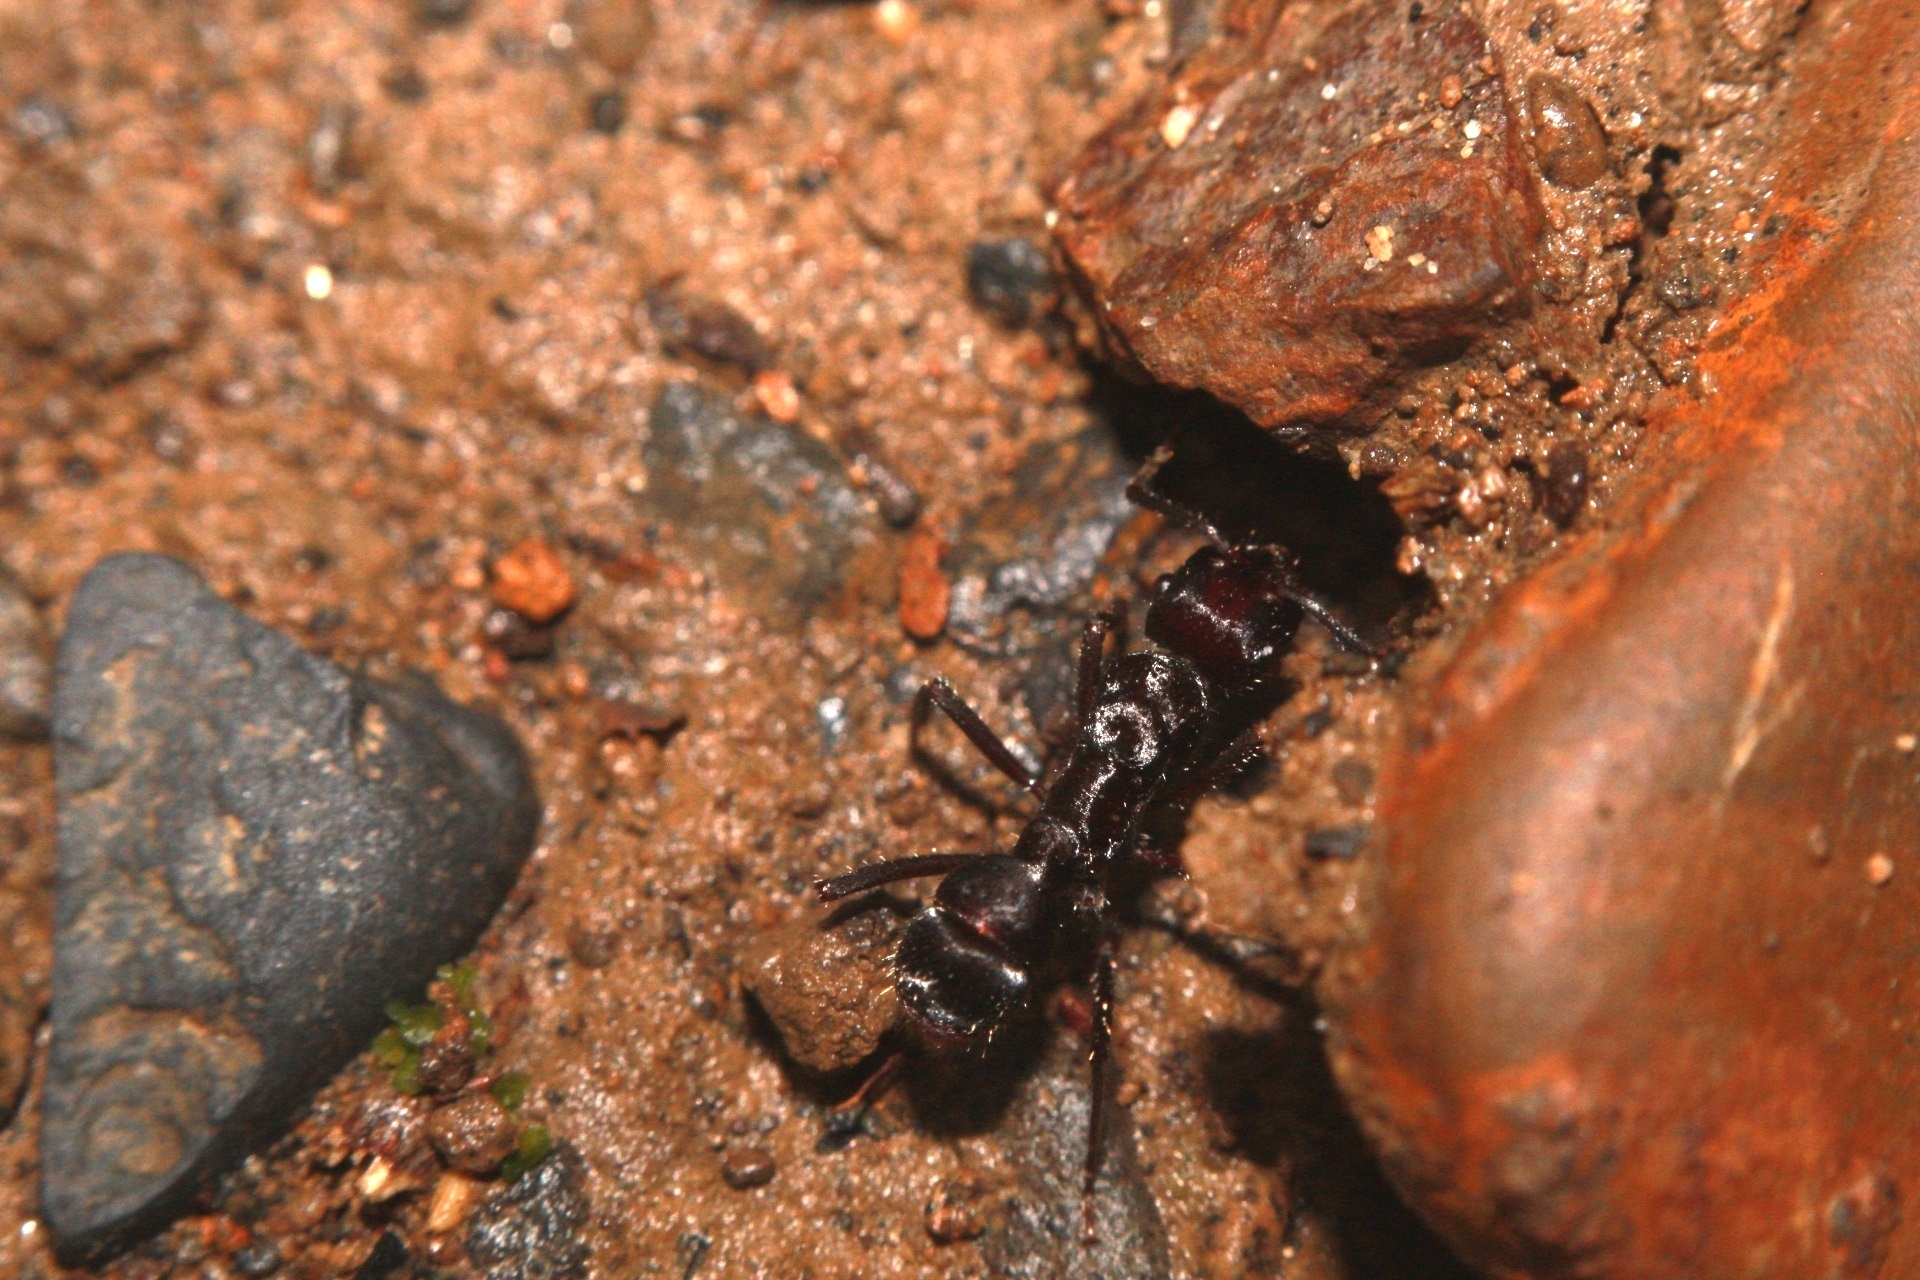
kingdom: Animalia
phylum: Arthropoda
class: Insecta
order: Hymenoptera
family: Formicidae
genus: Ectatomma
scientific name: Ectatomma brunneum
